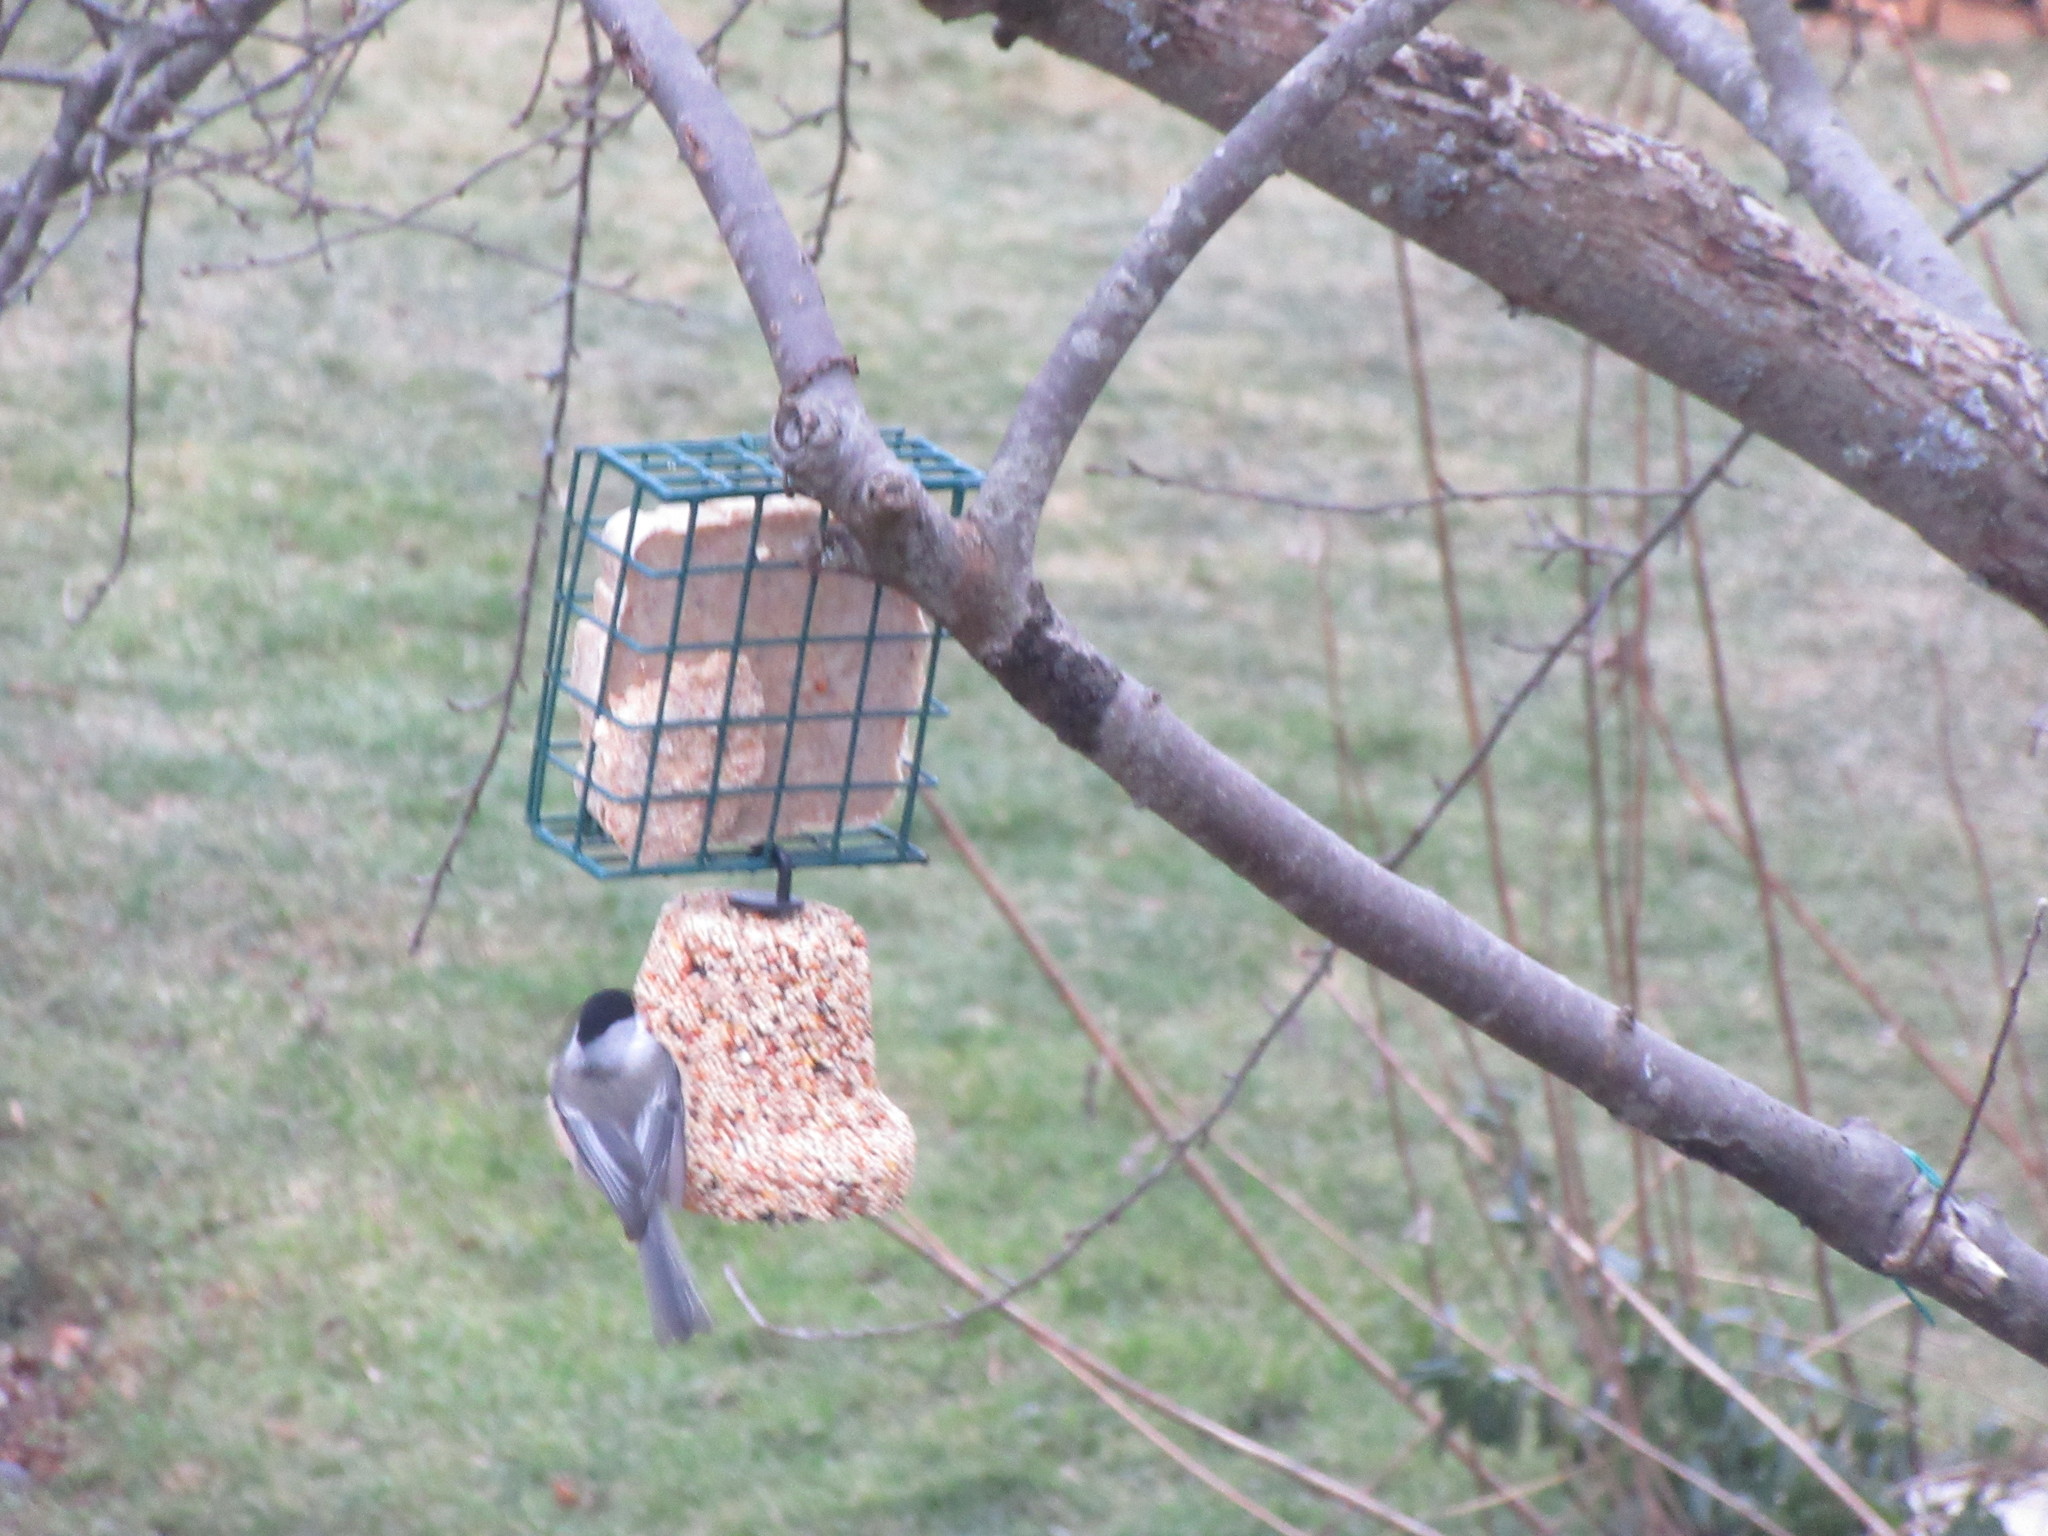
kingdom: Animalia
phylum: Chordata
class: Aves
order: Passeriformes
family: Paridae
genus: Poecile
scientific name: Poecile atricapillus
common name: Black-capped chickadee
